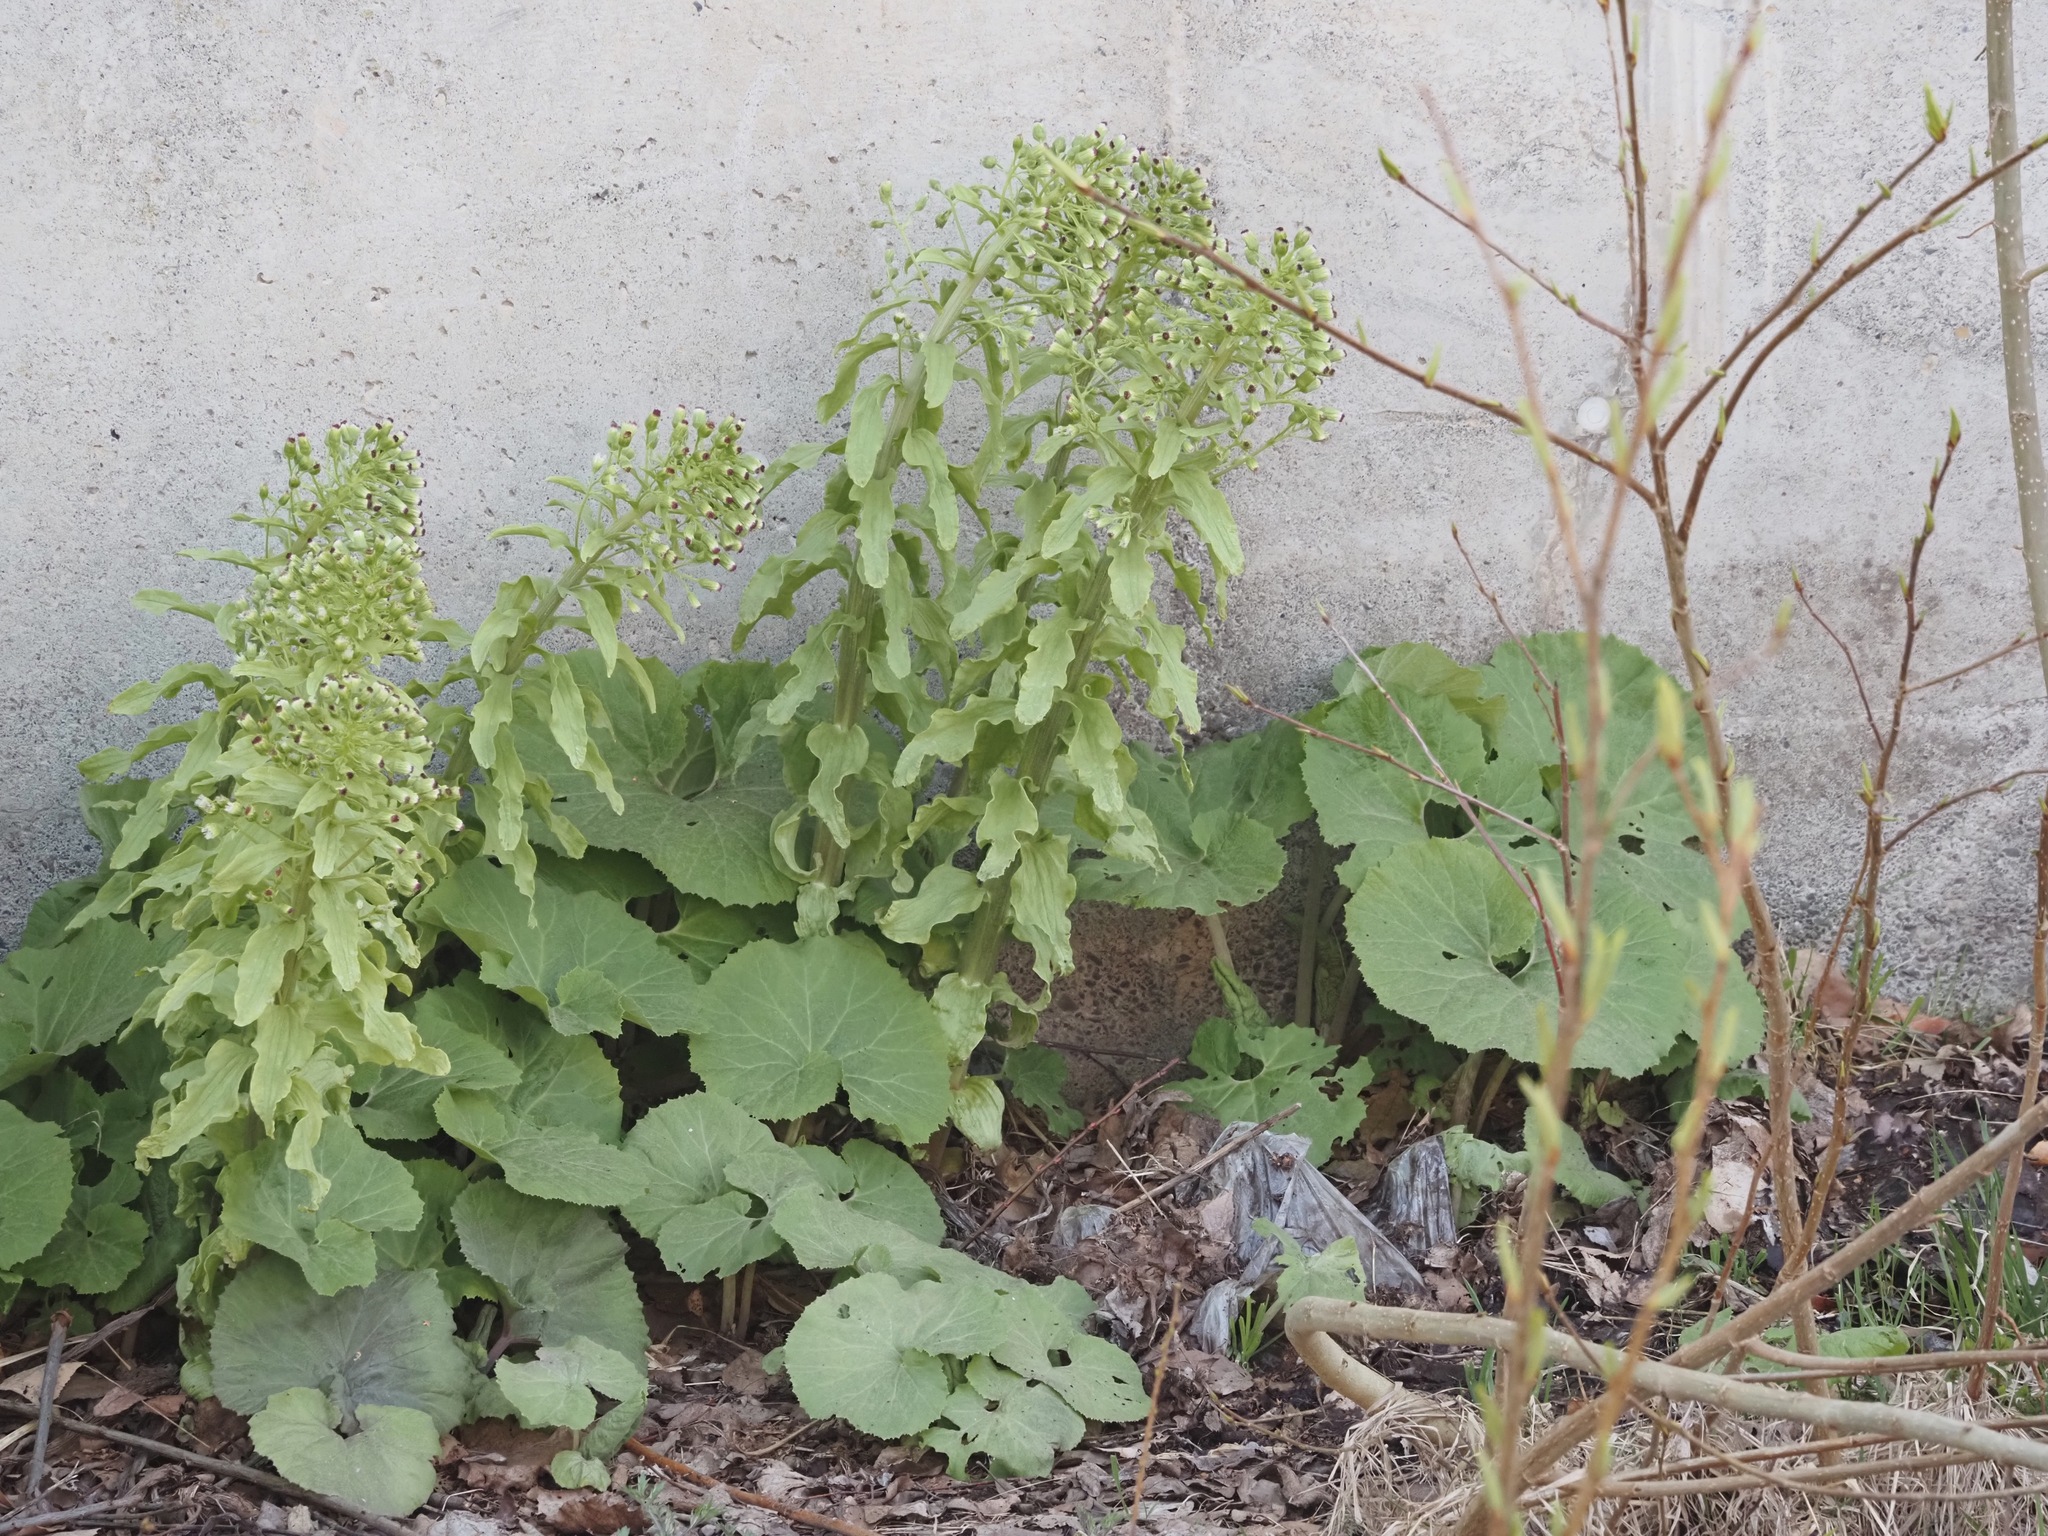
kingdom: Plantae
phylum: Tracheophyta
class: Magnoliopsida
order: Asterales
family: Asteraceae
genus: Petasites
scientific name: Petasites japonicus
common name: Giant butterbur
